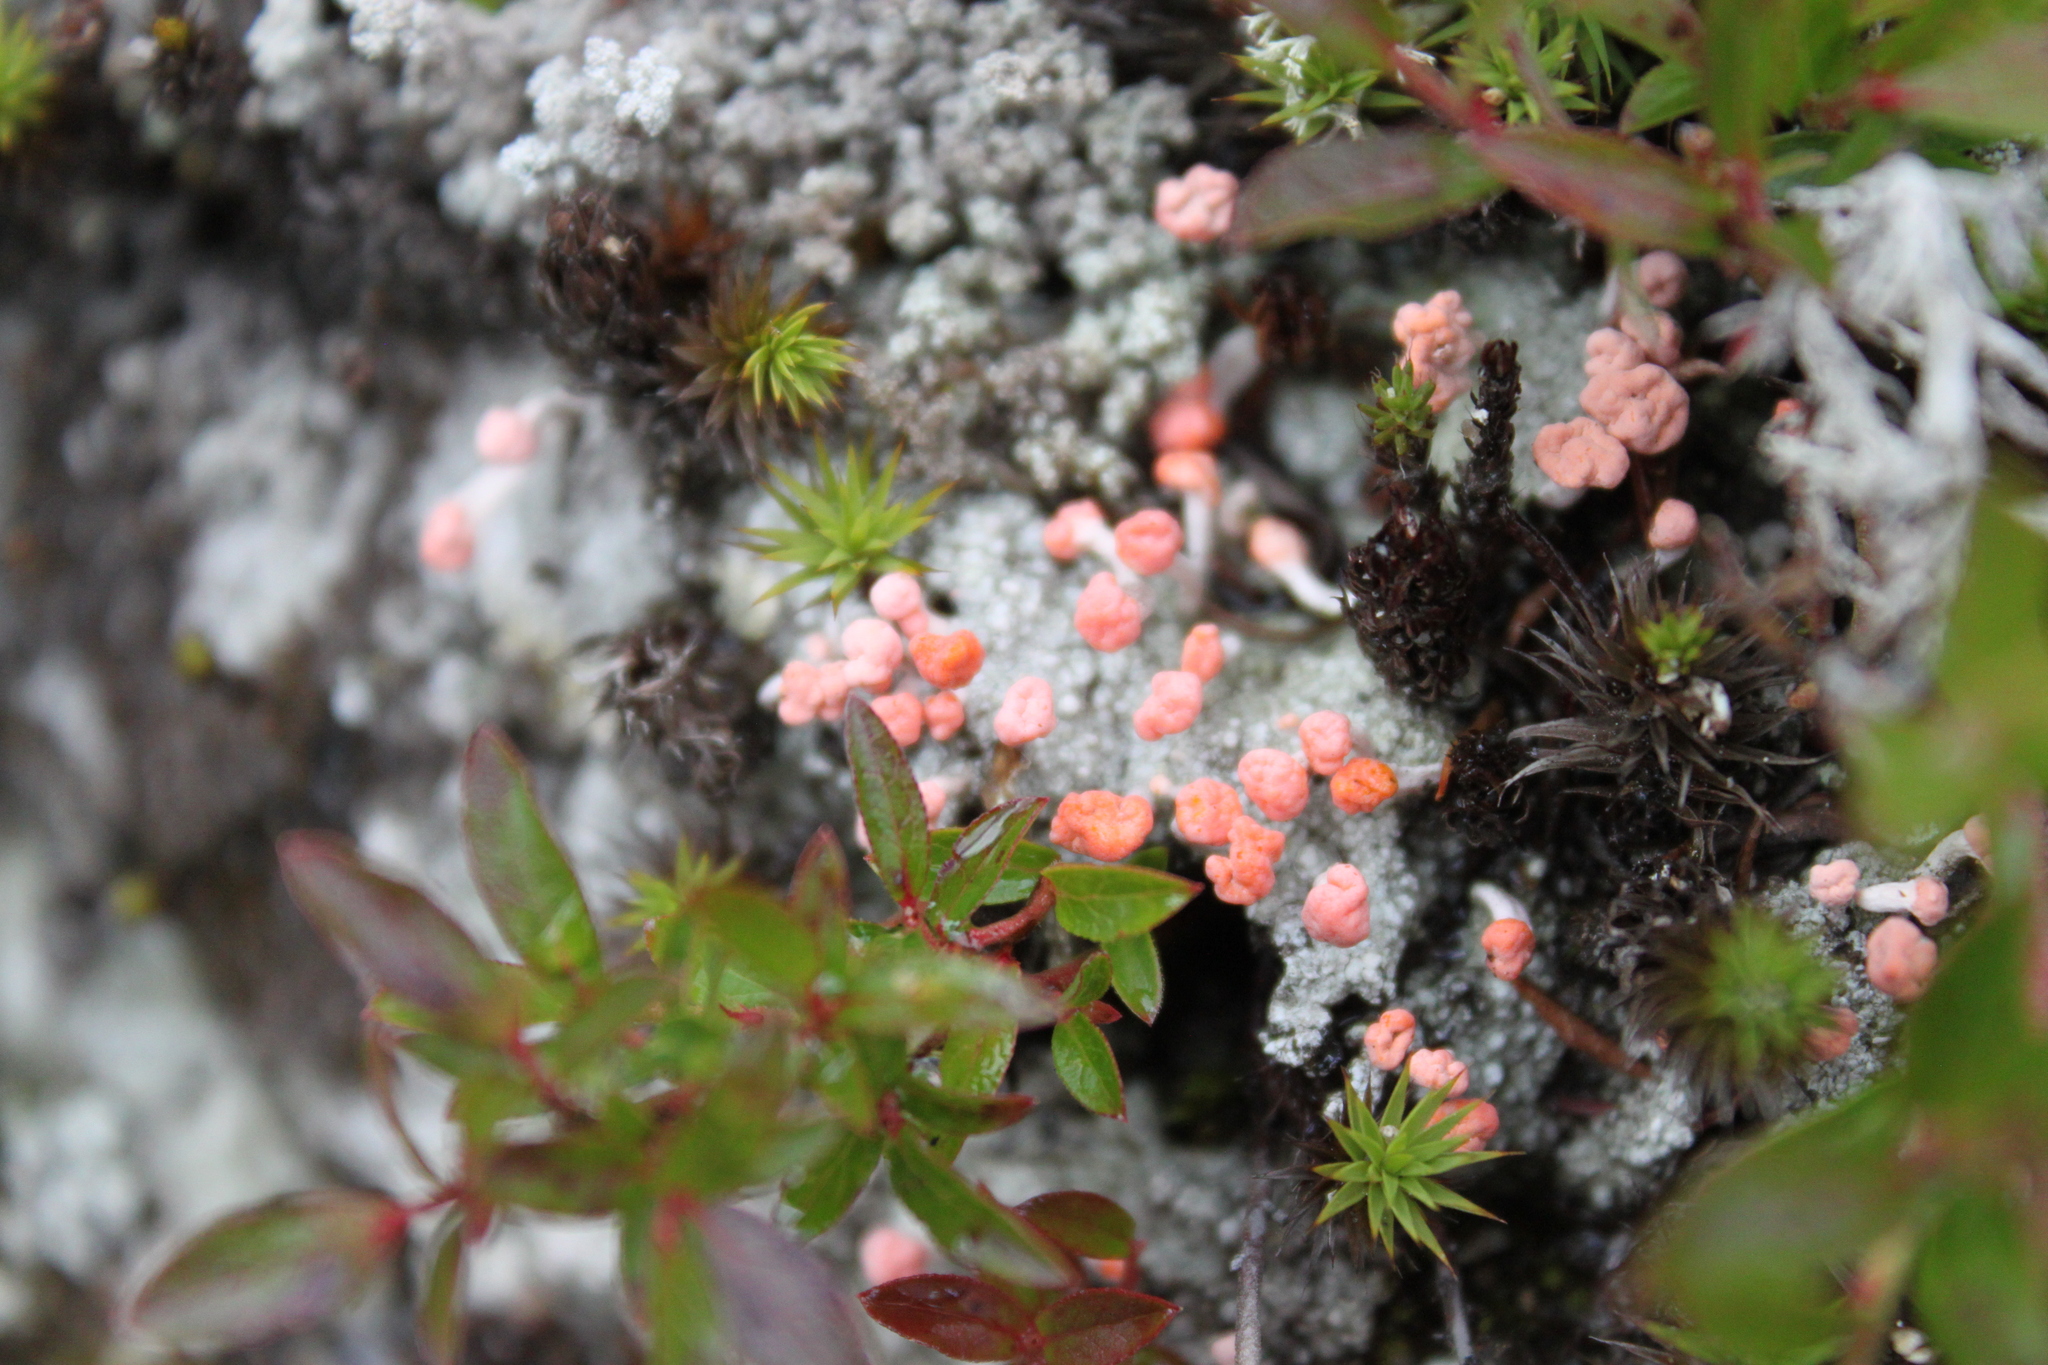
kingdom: Fungi
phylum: Ascomycota
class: Lecanoromycetes
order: Pertusariales
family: Icmadophilaceae
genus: Dibaeis
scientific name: Dibaeis baeomyces
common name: Pink earth lichen
